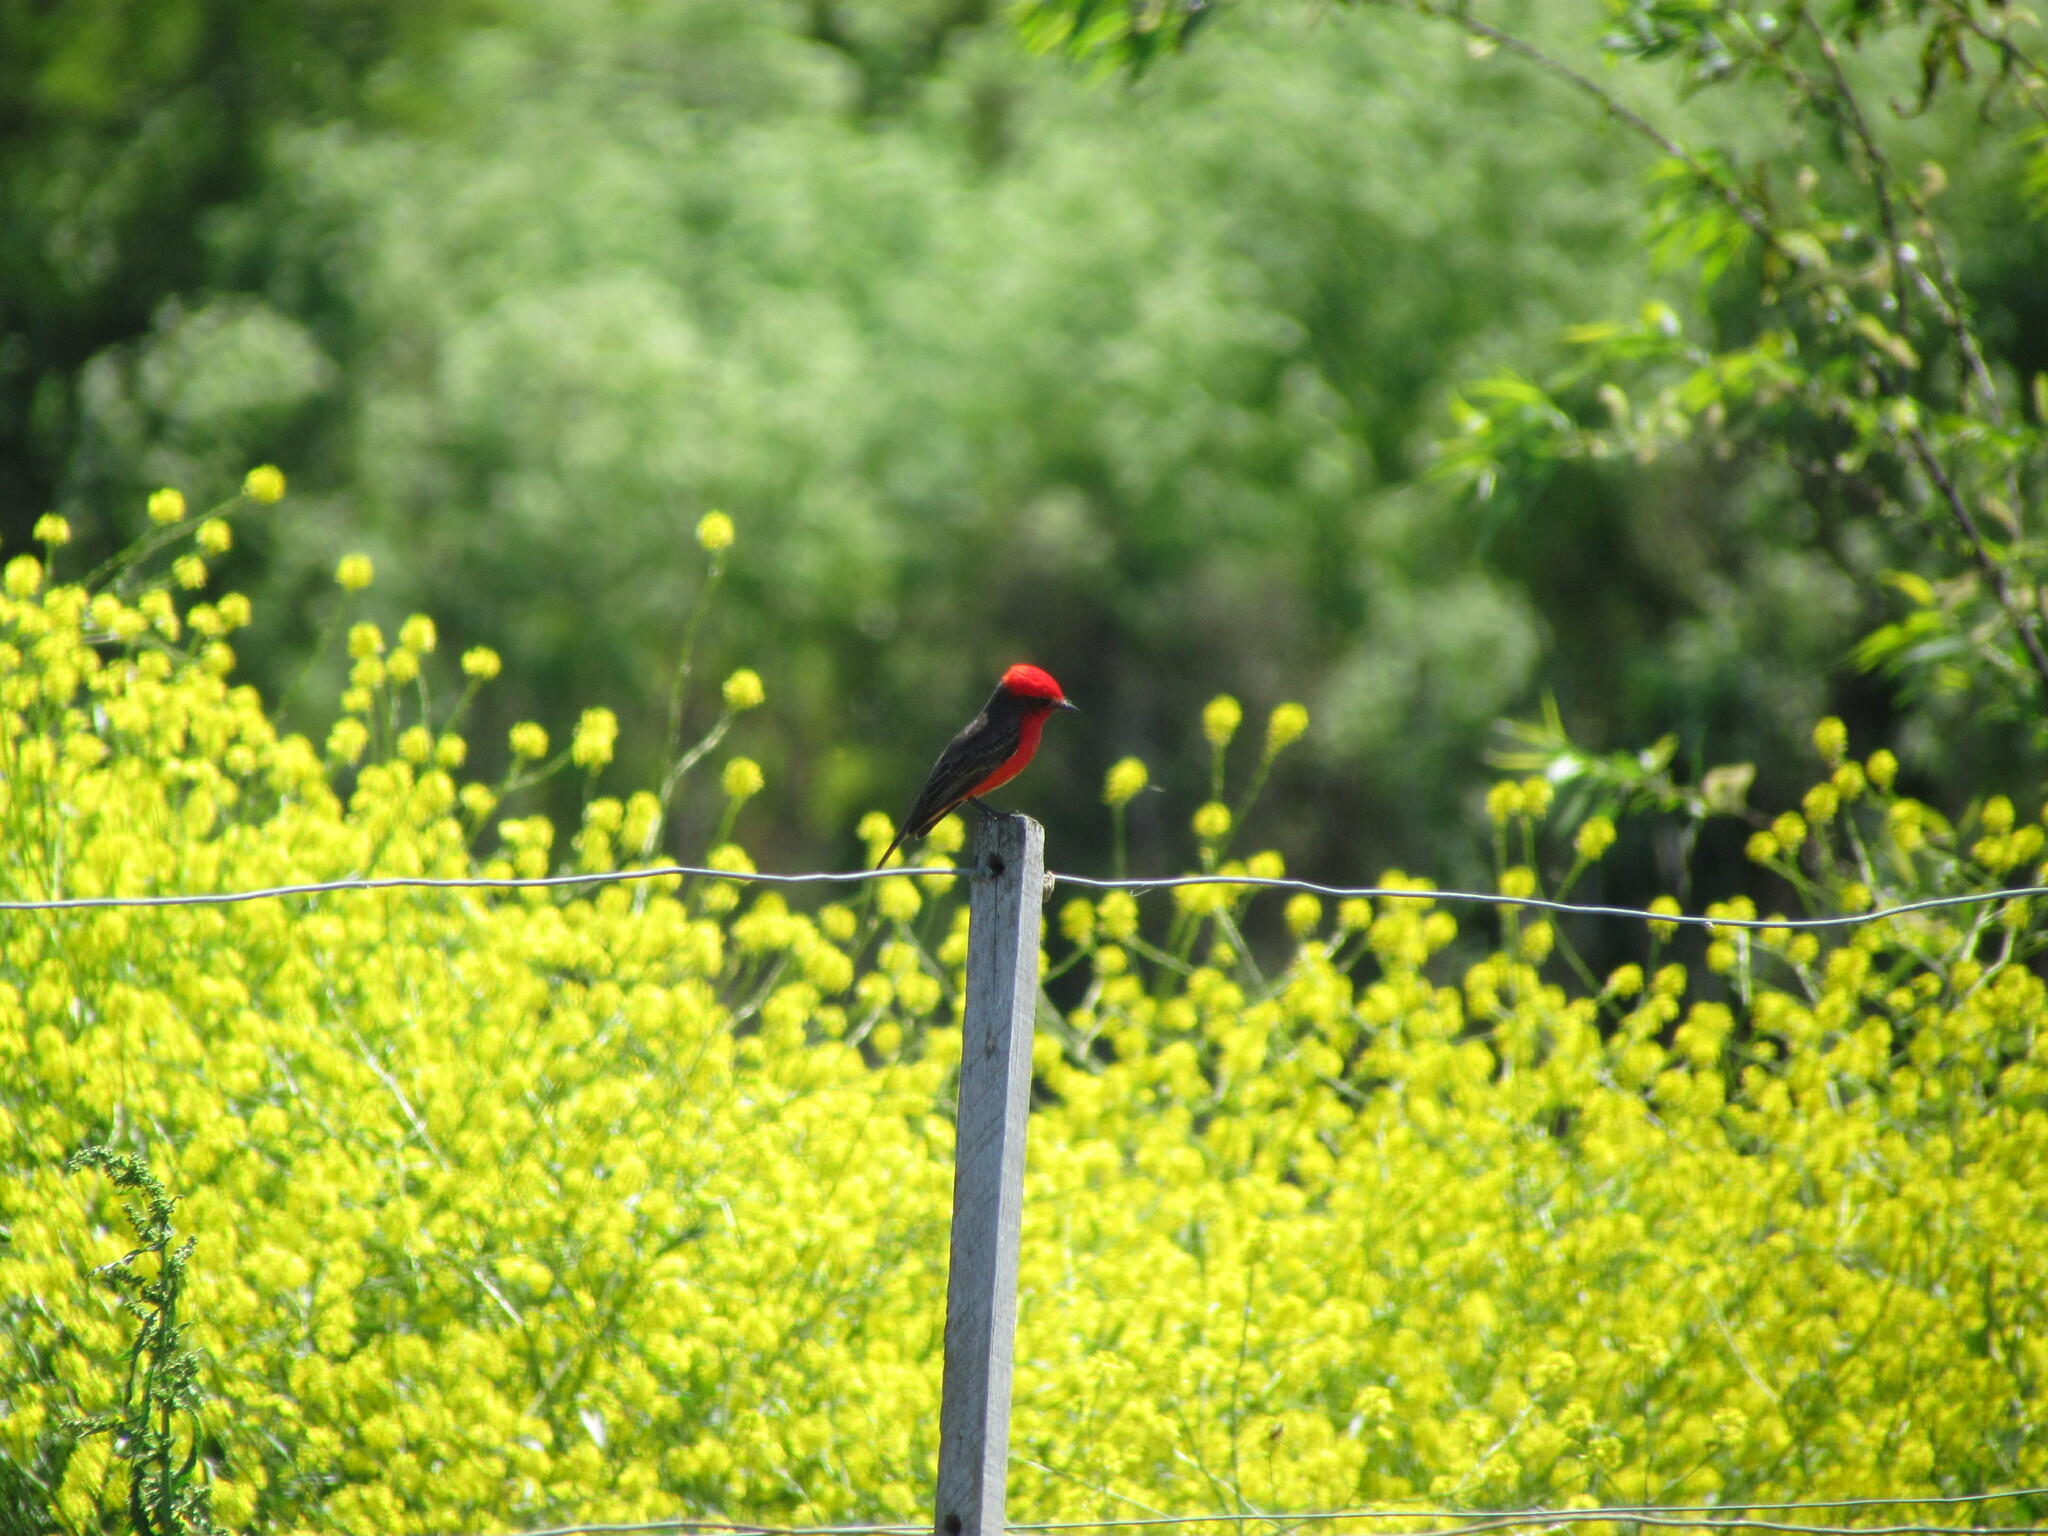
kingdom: Animalia
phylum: Chordata
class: Aves
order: Passeriformes
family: Tyrannidae
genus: Pyrocephalus
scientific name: Pyrocephalus rubinus
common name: Vermilion flycatcher
